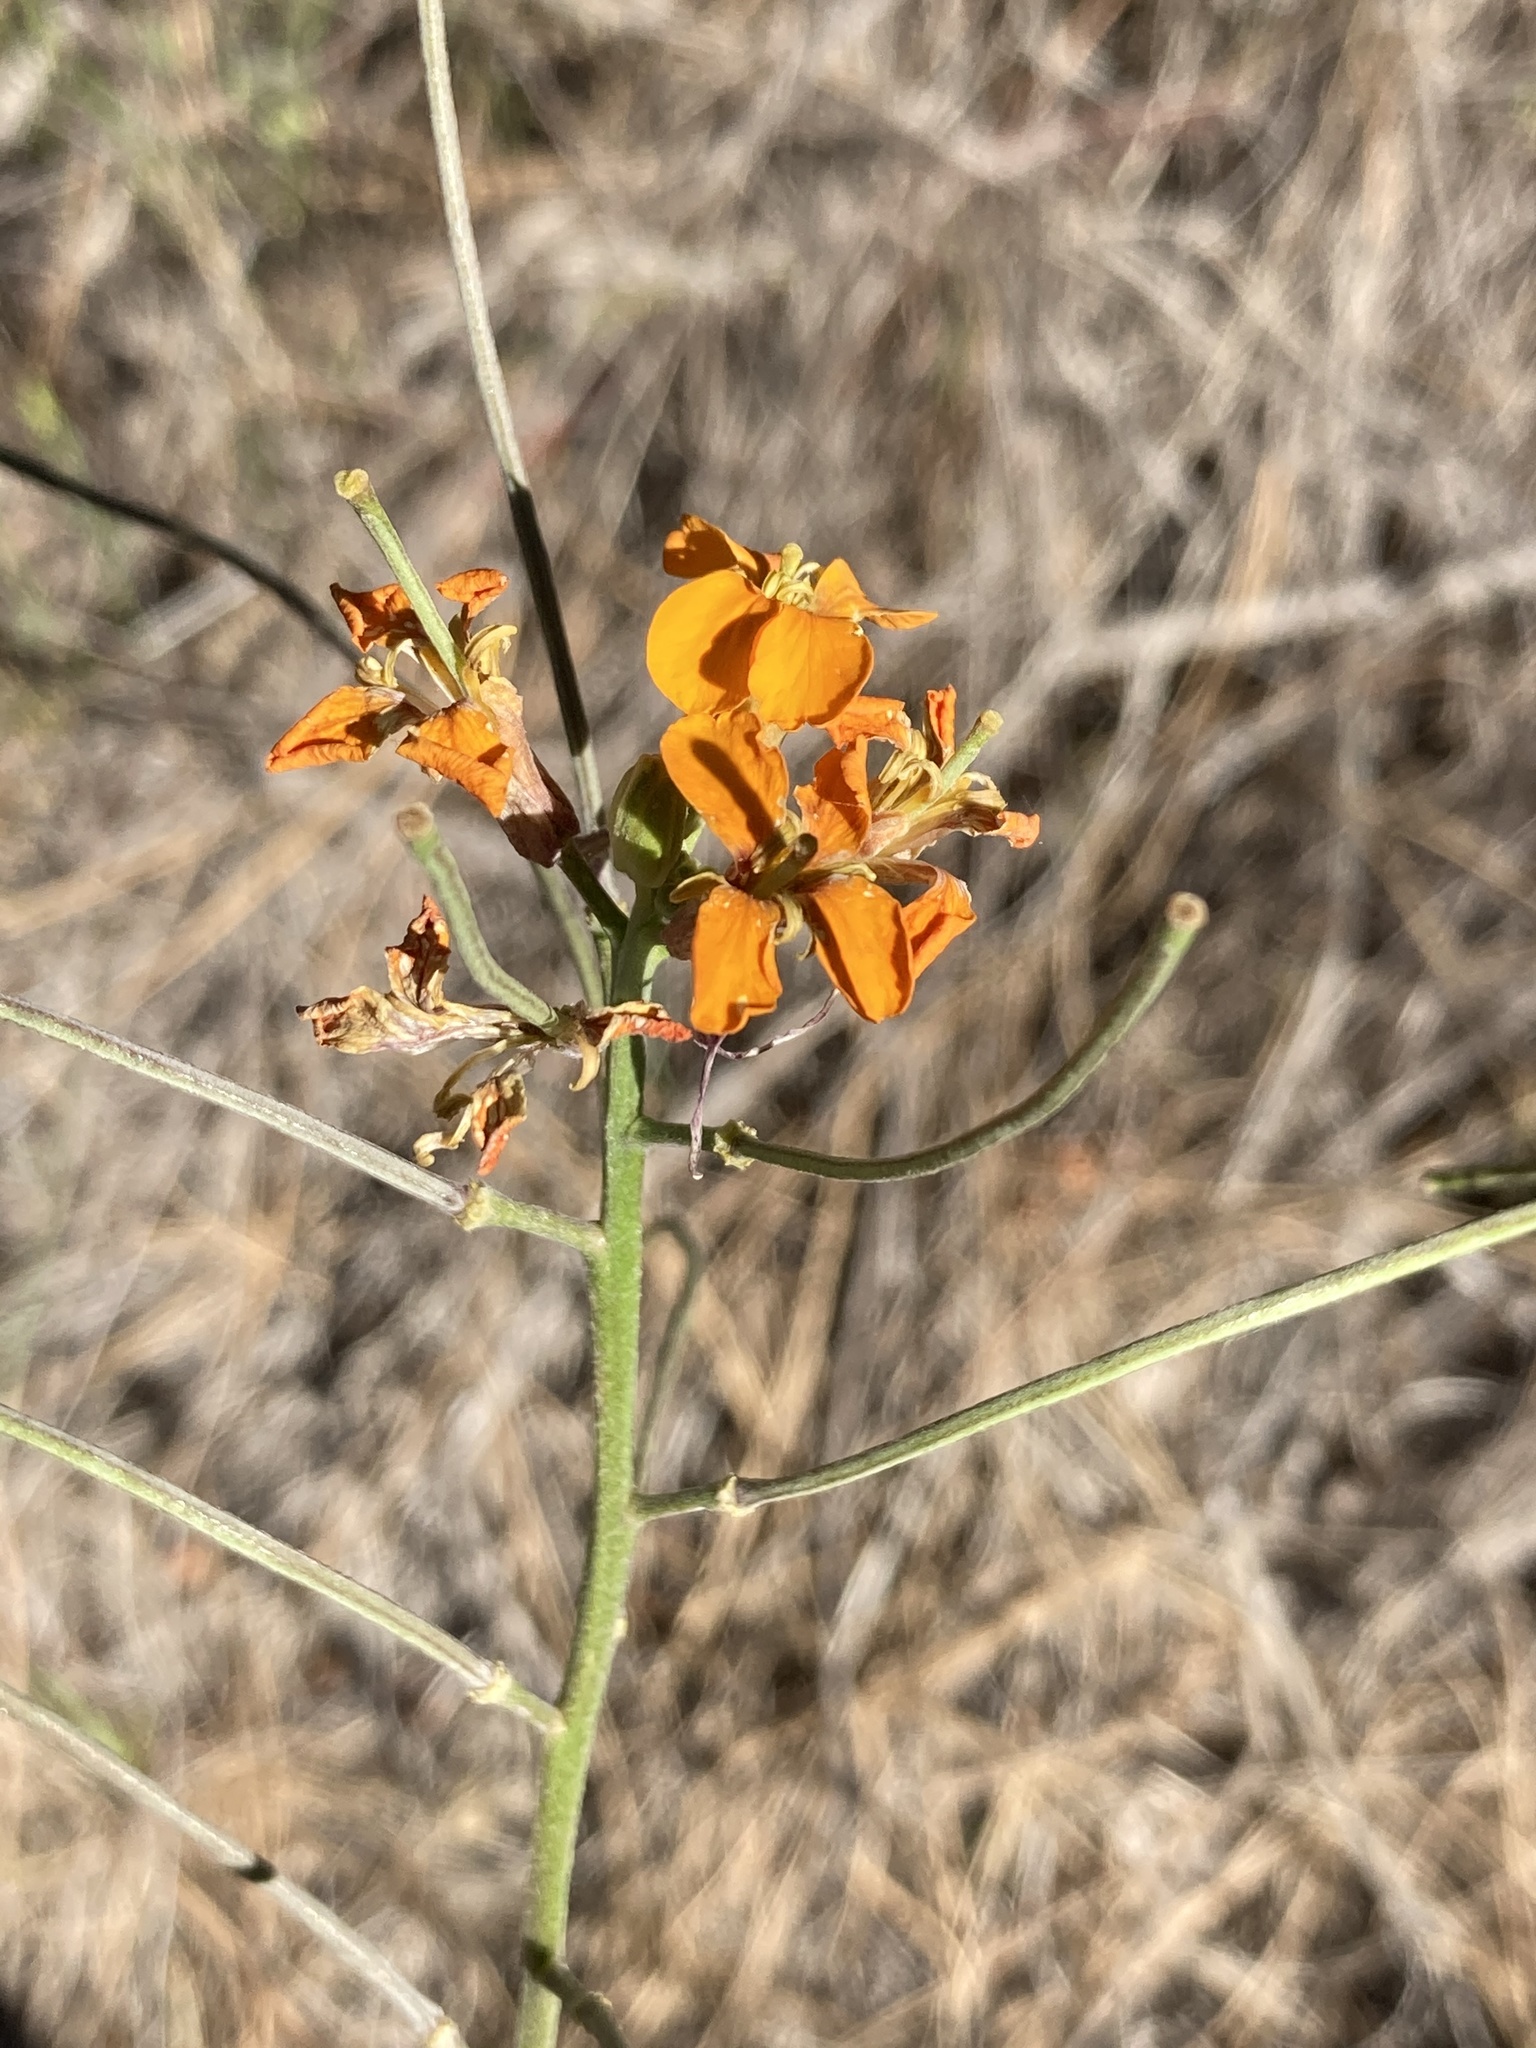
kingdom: Plantae
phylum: Tracheophyta
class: Magnoliopsida
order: Brassicales
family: Brassicaceae
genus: Erysimum
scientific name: Erysimum capitatum
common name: Western wallflower
